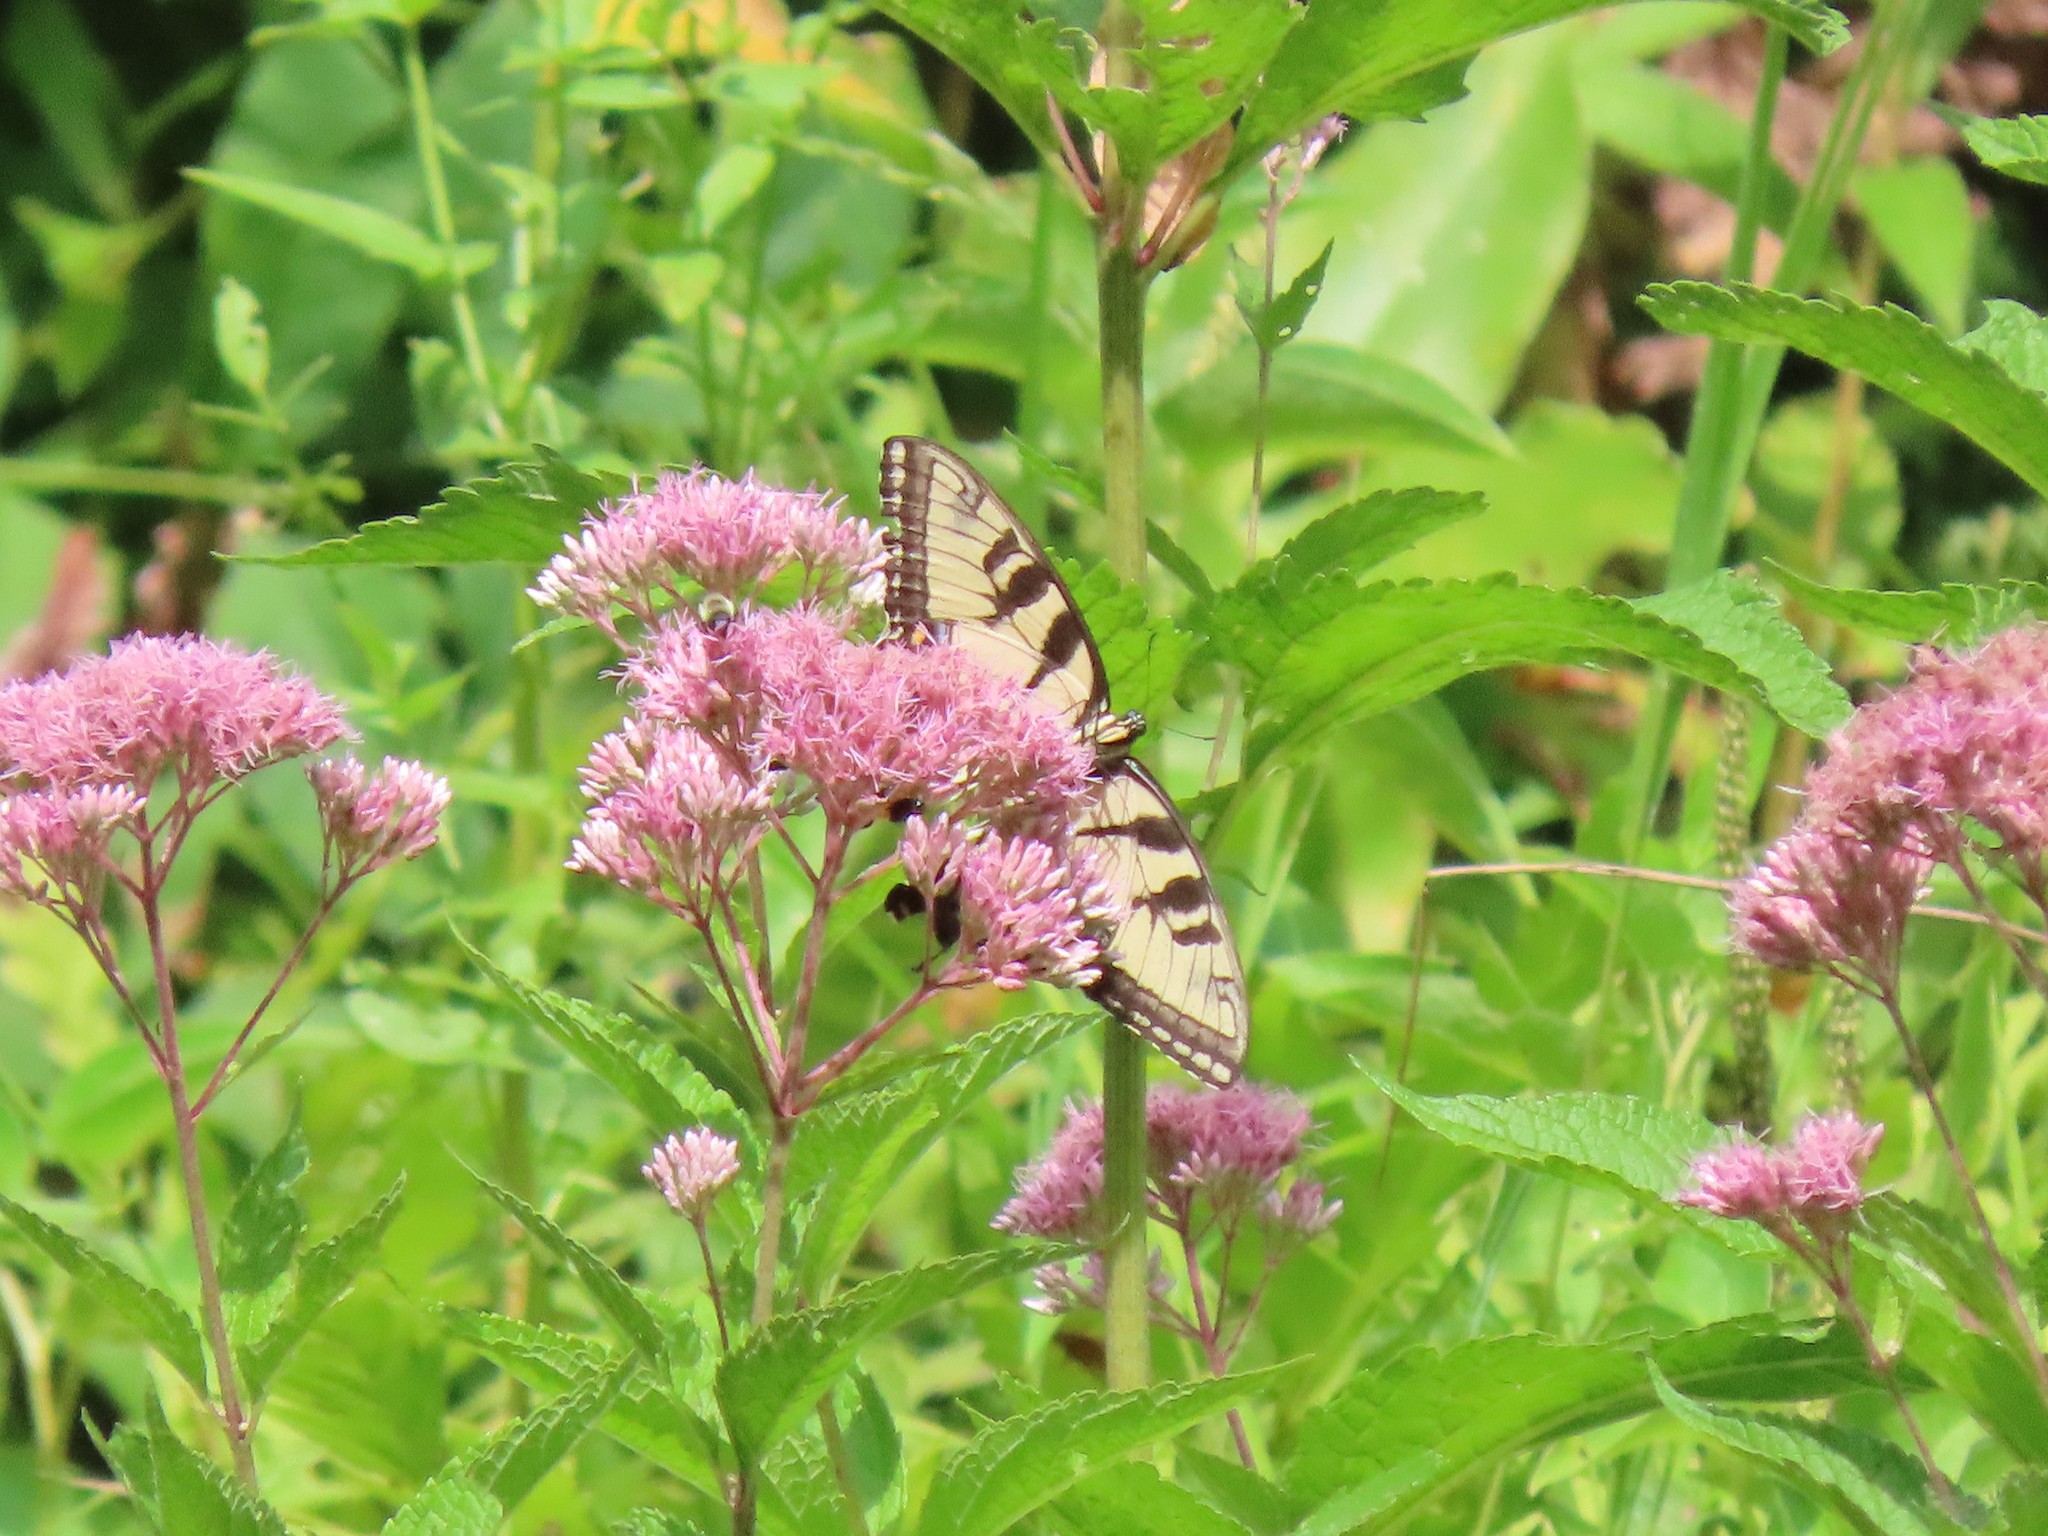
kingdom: Animalia
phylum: Arthropoda
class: Insecta
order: Lepidoptera
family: Papilionidae
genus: Papilio
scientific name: Papilio glaucus
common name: Tiger swallowtail
